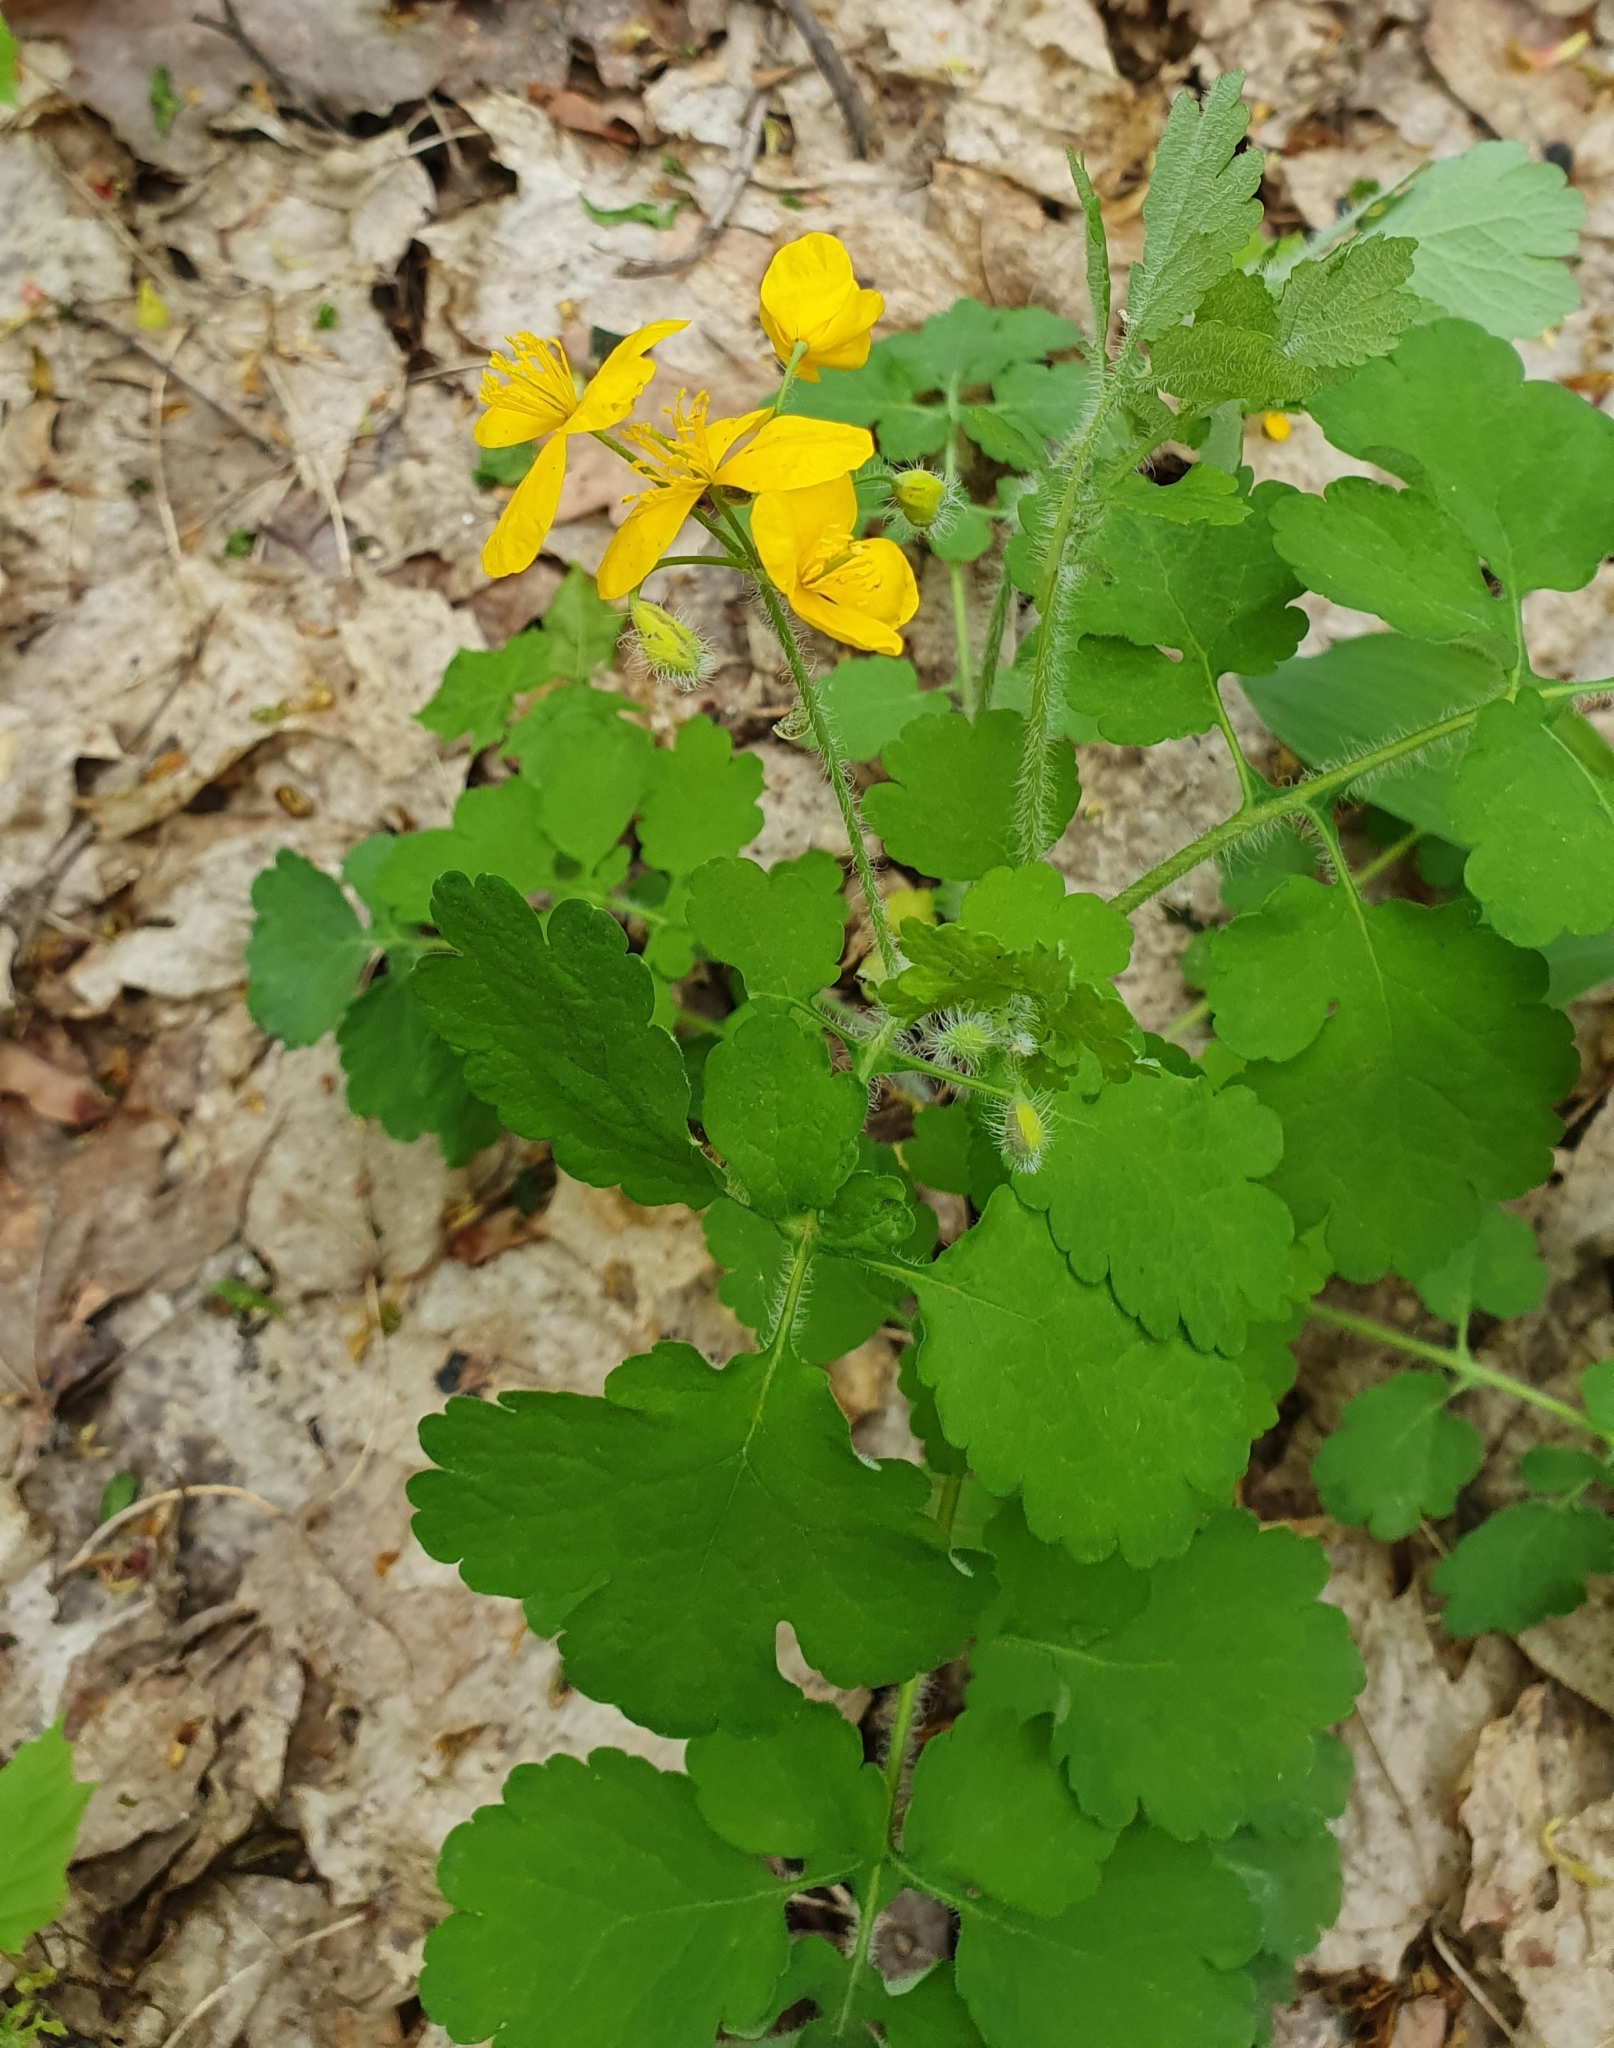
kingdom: Plantae
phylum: Tracheophyta
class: Magnoliopsida
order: Ranunculales
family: Papaveraceae
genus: Chelidonium
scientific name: Chelidonium majus
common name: Greater celandine
